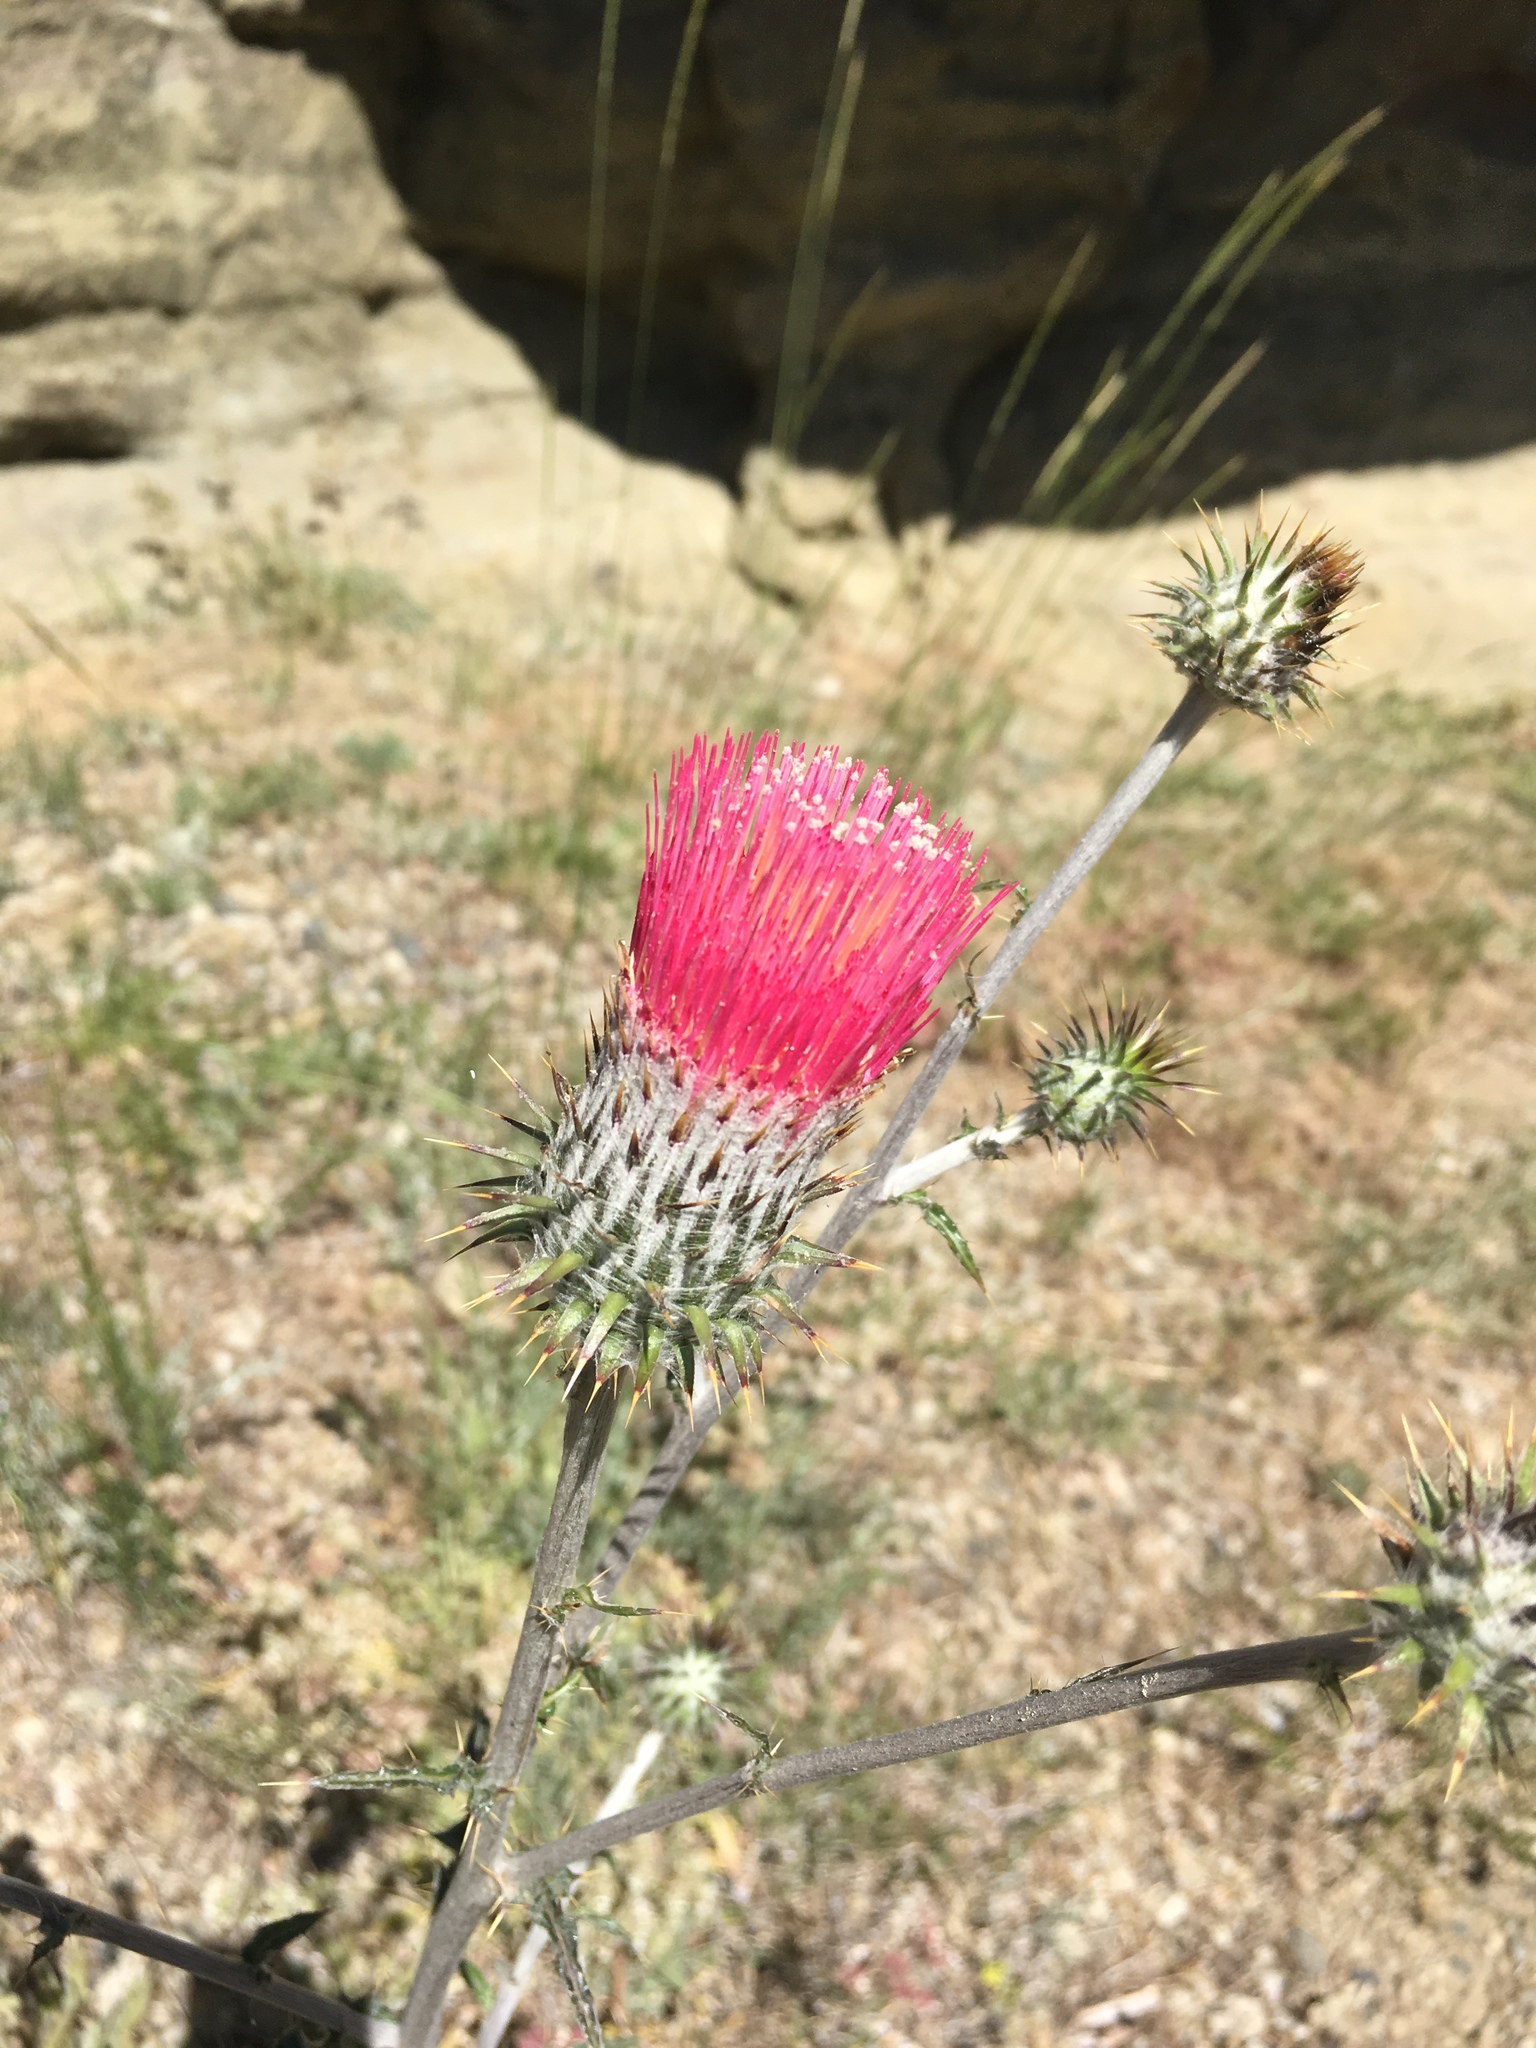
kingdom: Plantae
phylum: Tracheophyta
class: Magnoliopsida
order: Asterales
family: Asteraceae
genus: Cirsium
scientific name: Cirsium occidentale
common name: Western thistle
